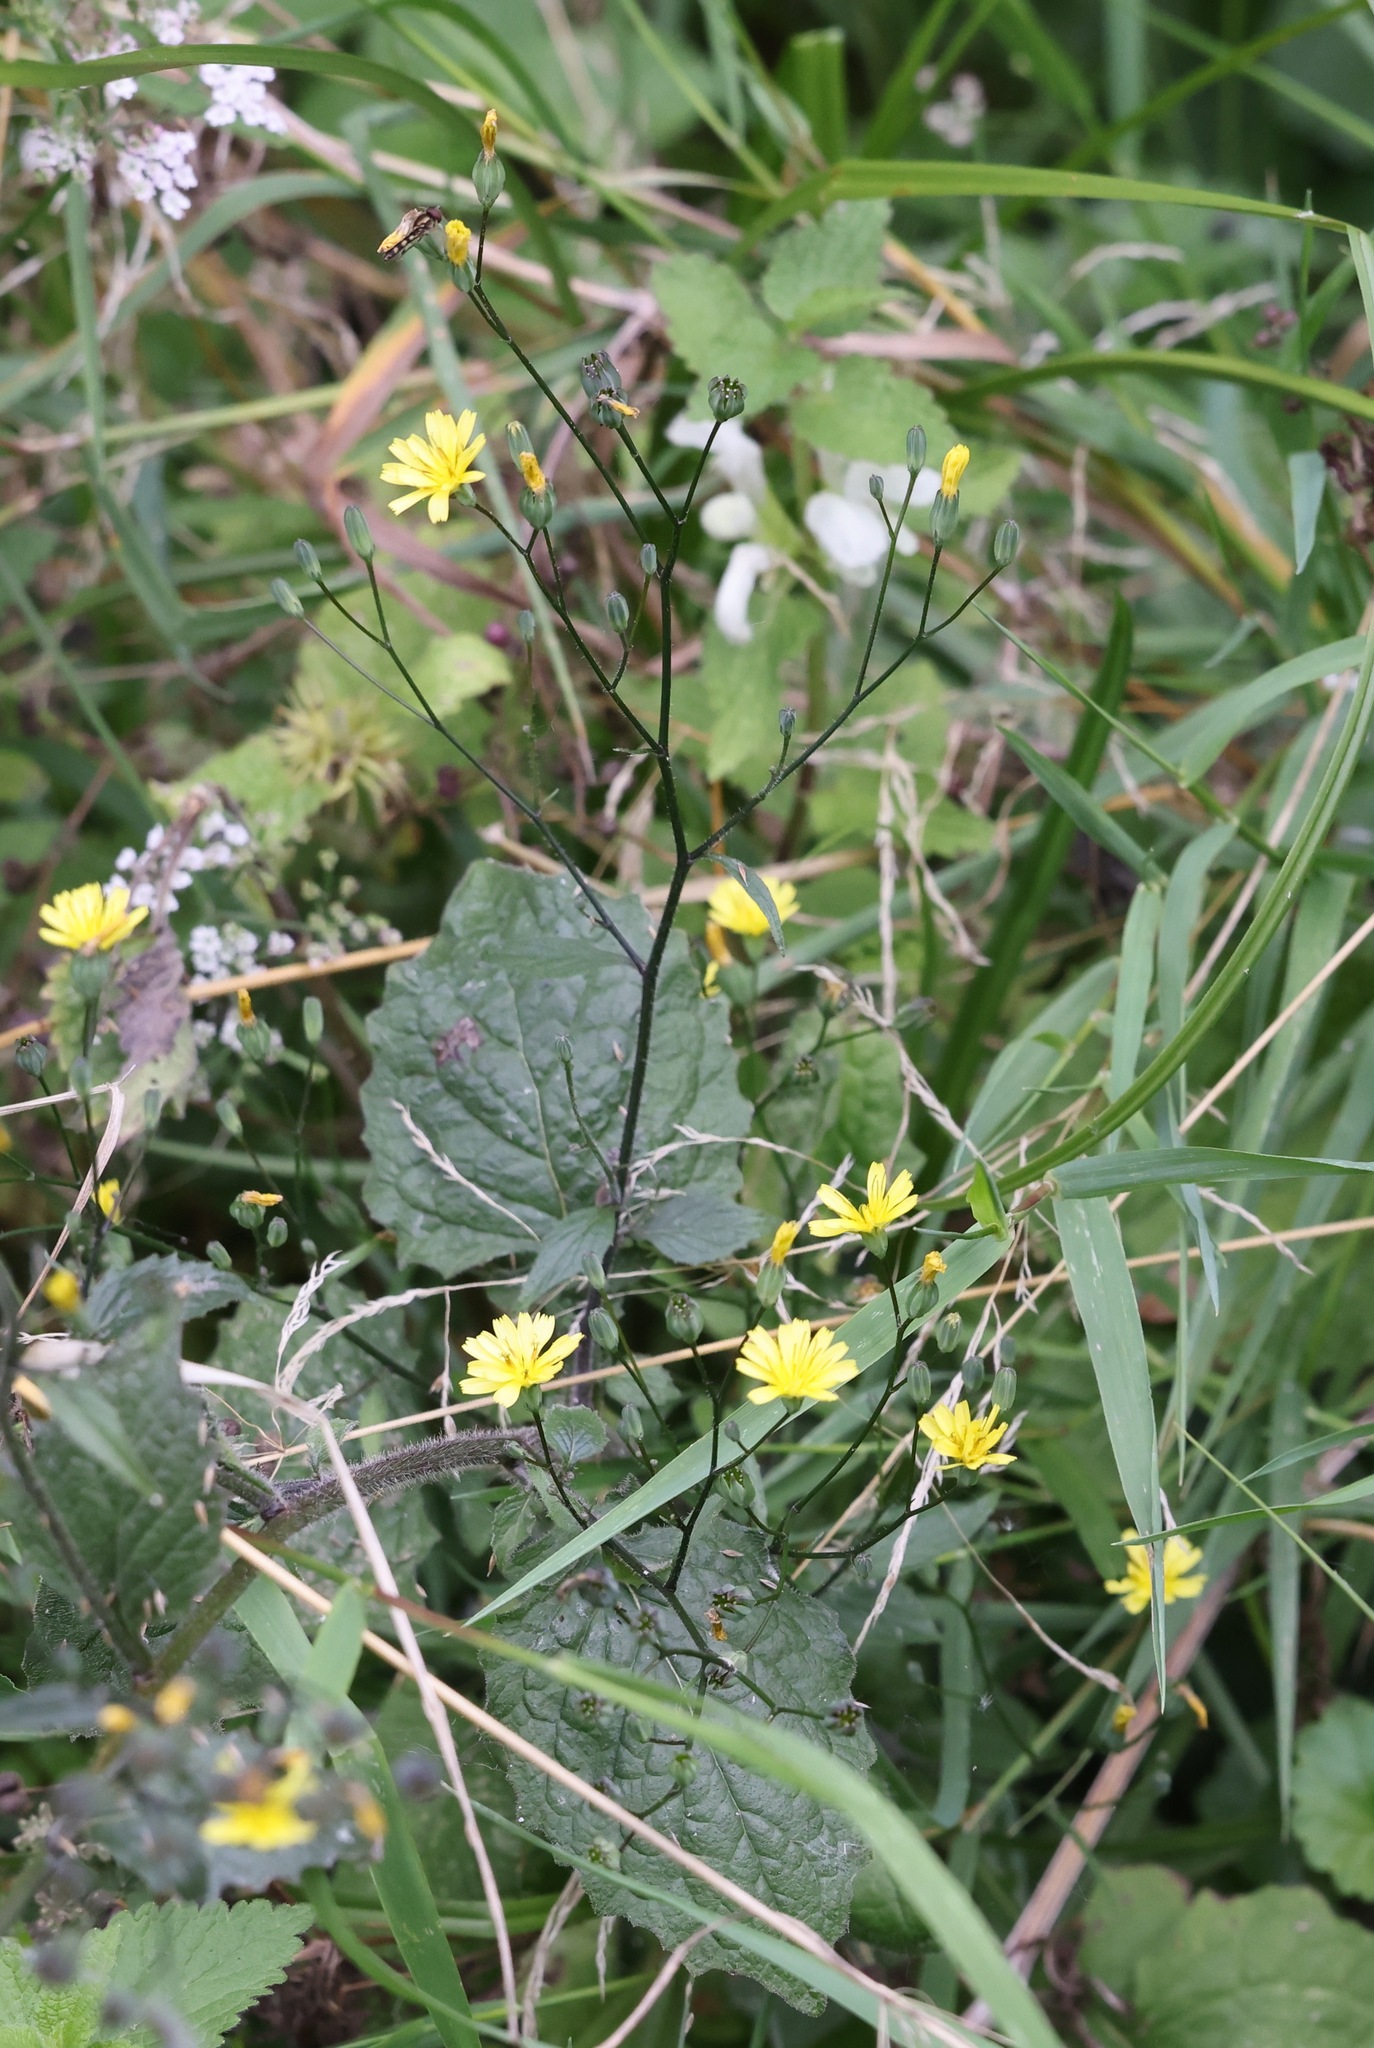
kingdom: Plantae
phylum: Tracheophyta
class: Magnoliopsida
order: Asterales
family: Asteraceae
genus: Lapsana
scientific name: Lapsana communis
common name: Nipplewort
